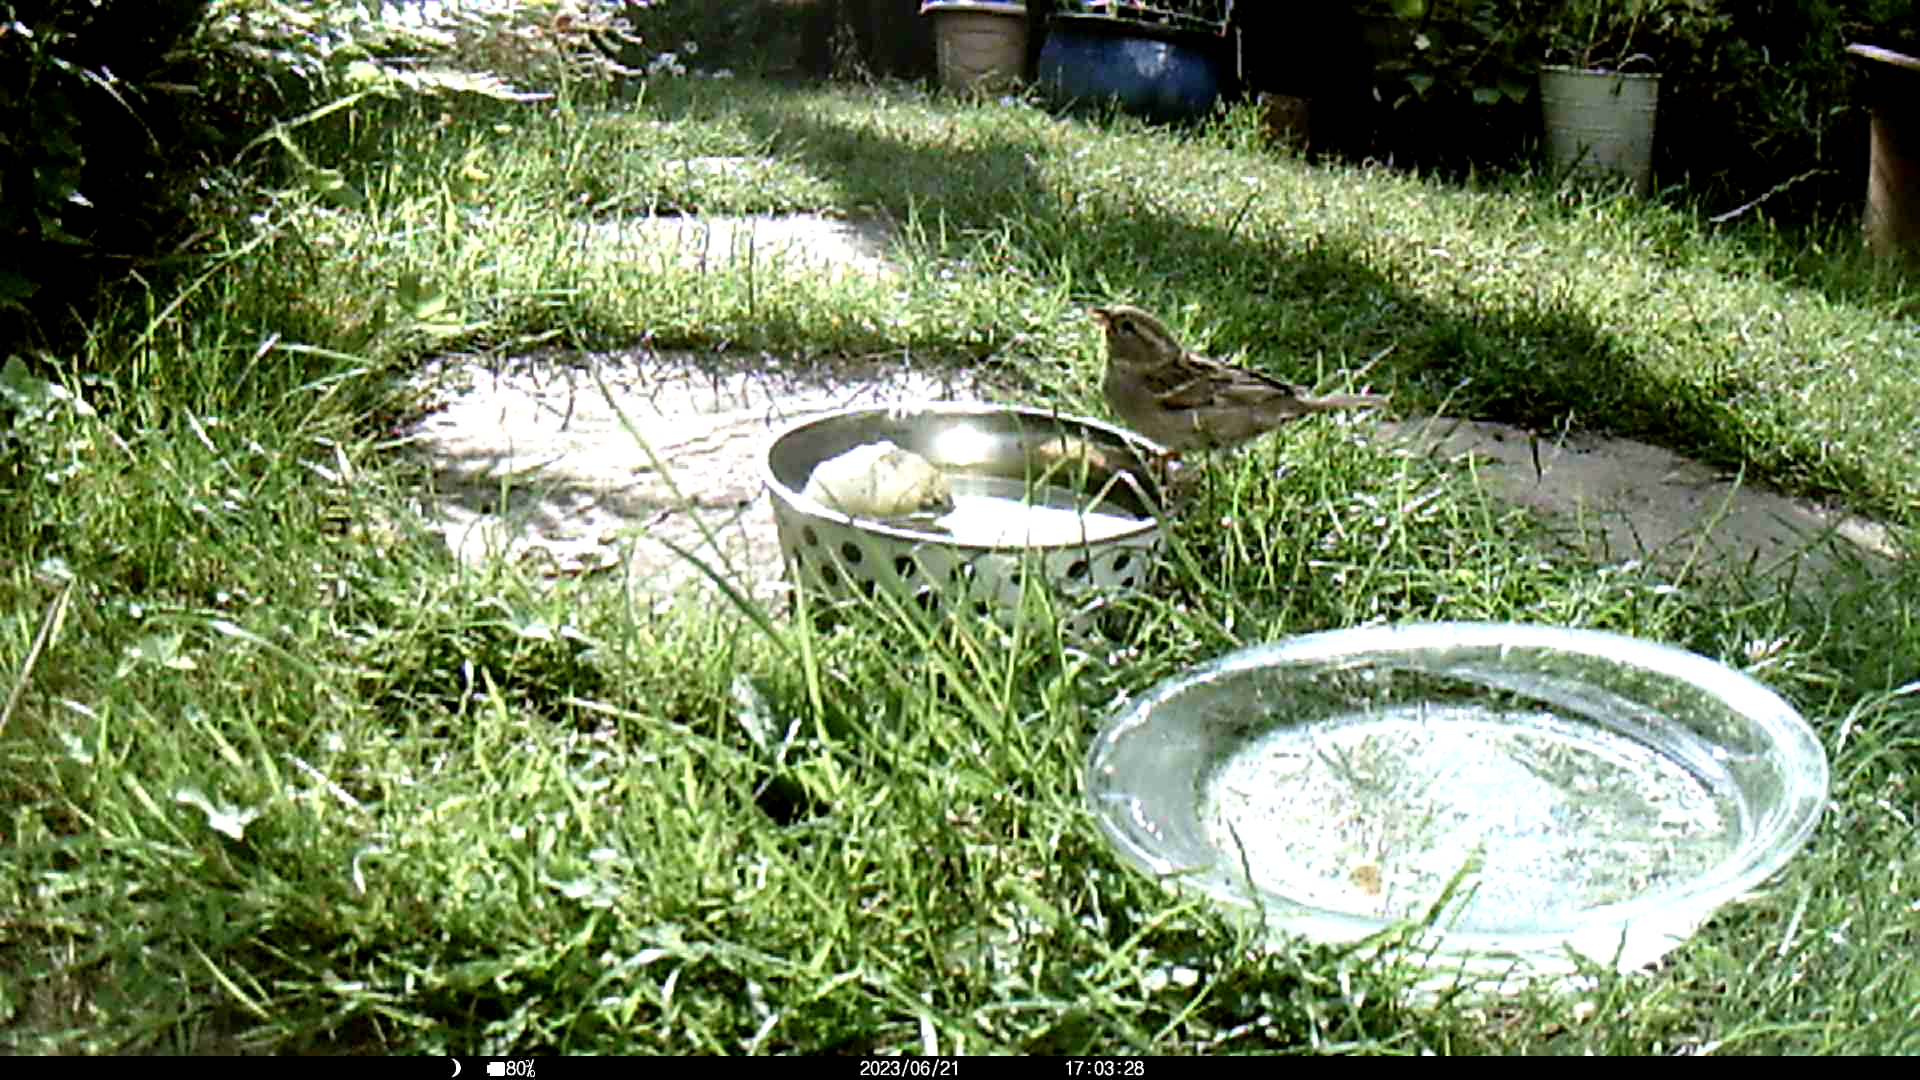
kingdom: Animalia
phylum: Chordata
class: Aves
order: Passeriformes
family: Passeridae
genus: Passer
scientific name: Passer domesticus
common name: House sparrow
